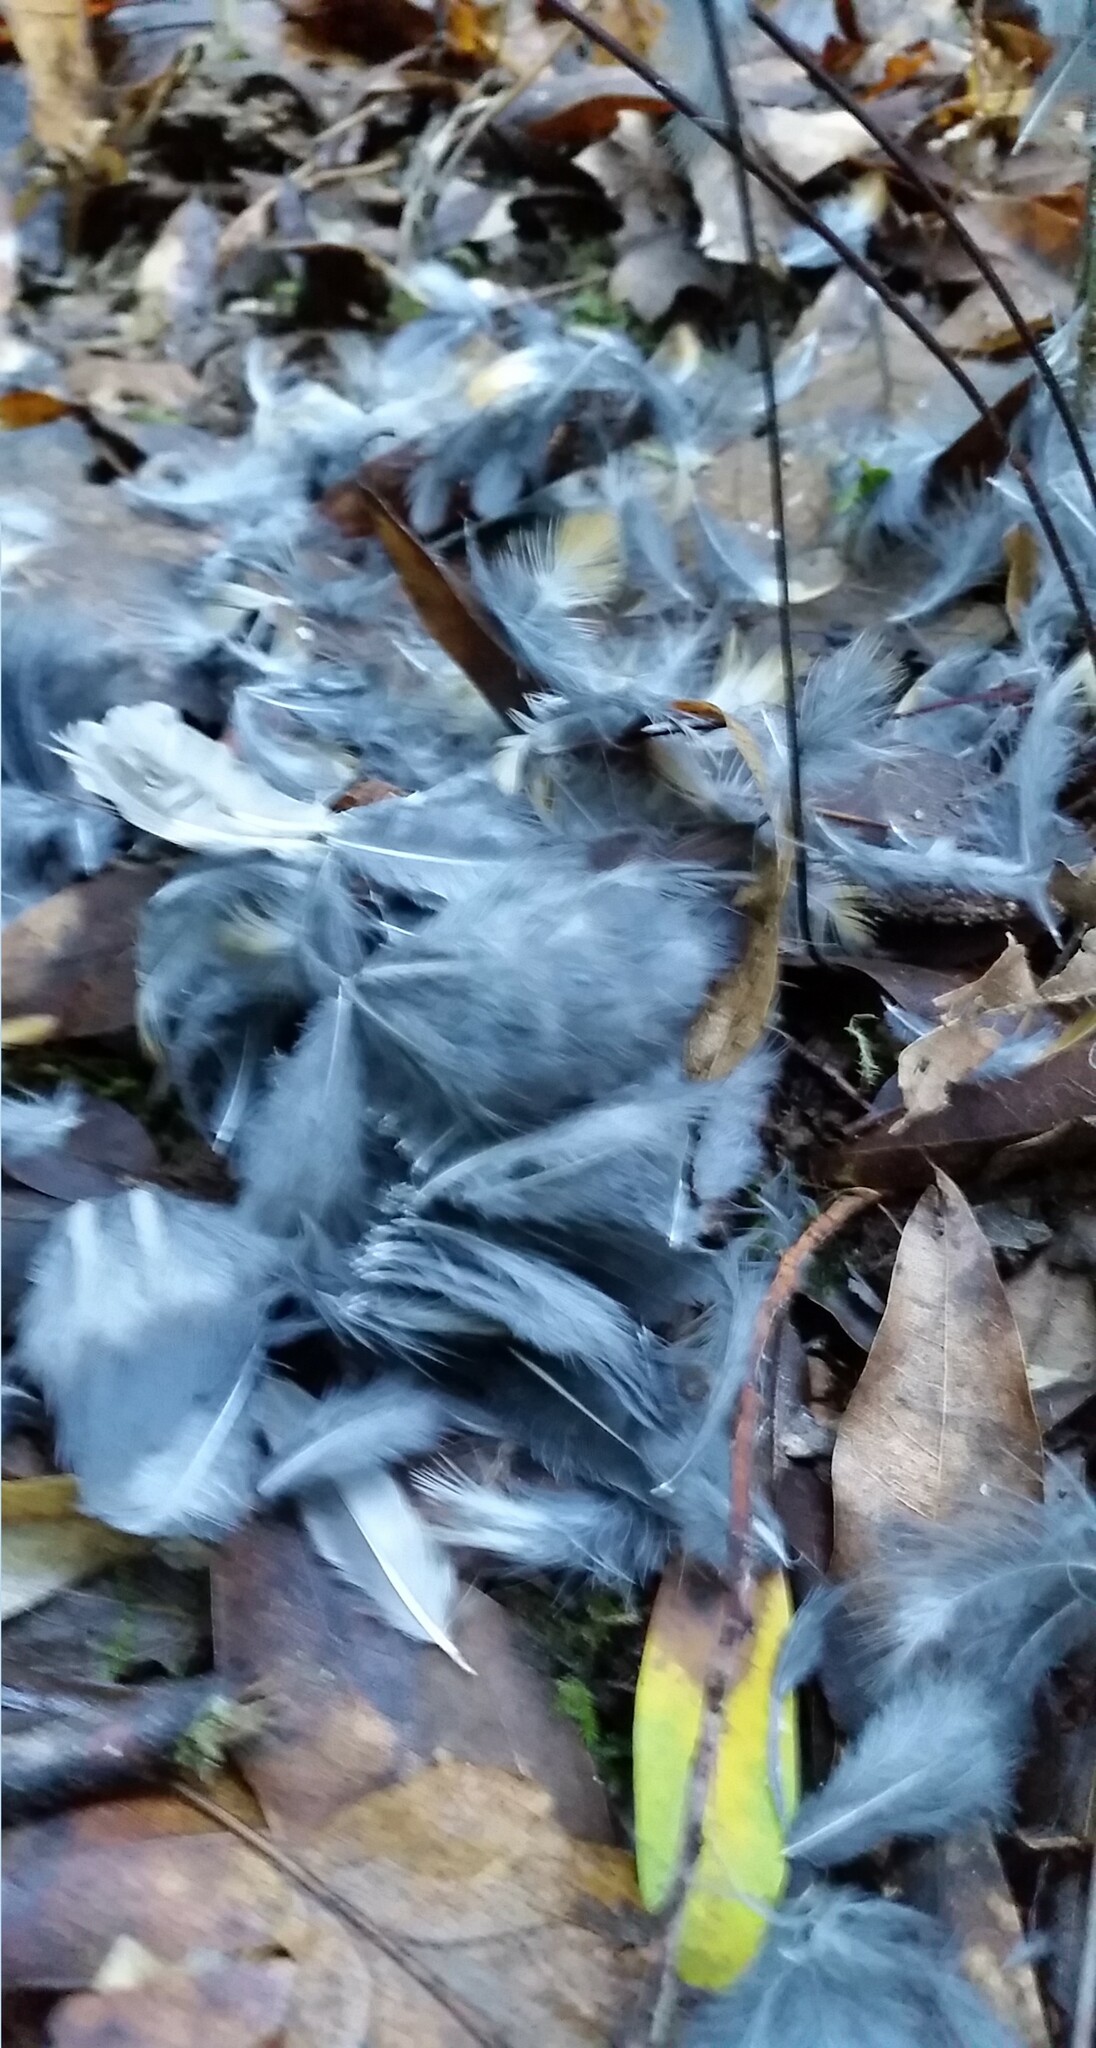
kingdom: Animalia
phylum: Chordata
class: Aves
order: Passeriformes
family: Turdidae
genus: Turdus
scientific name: Turdus migratorius
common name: American robin
